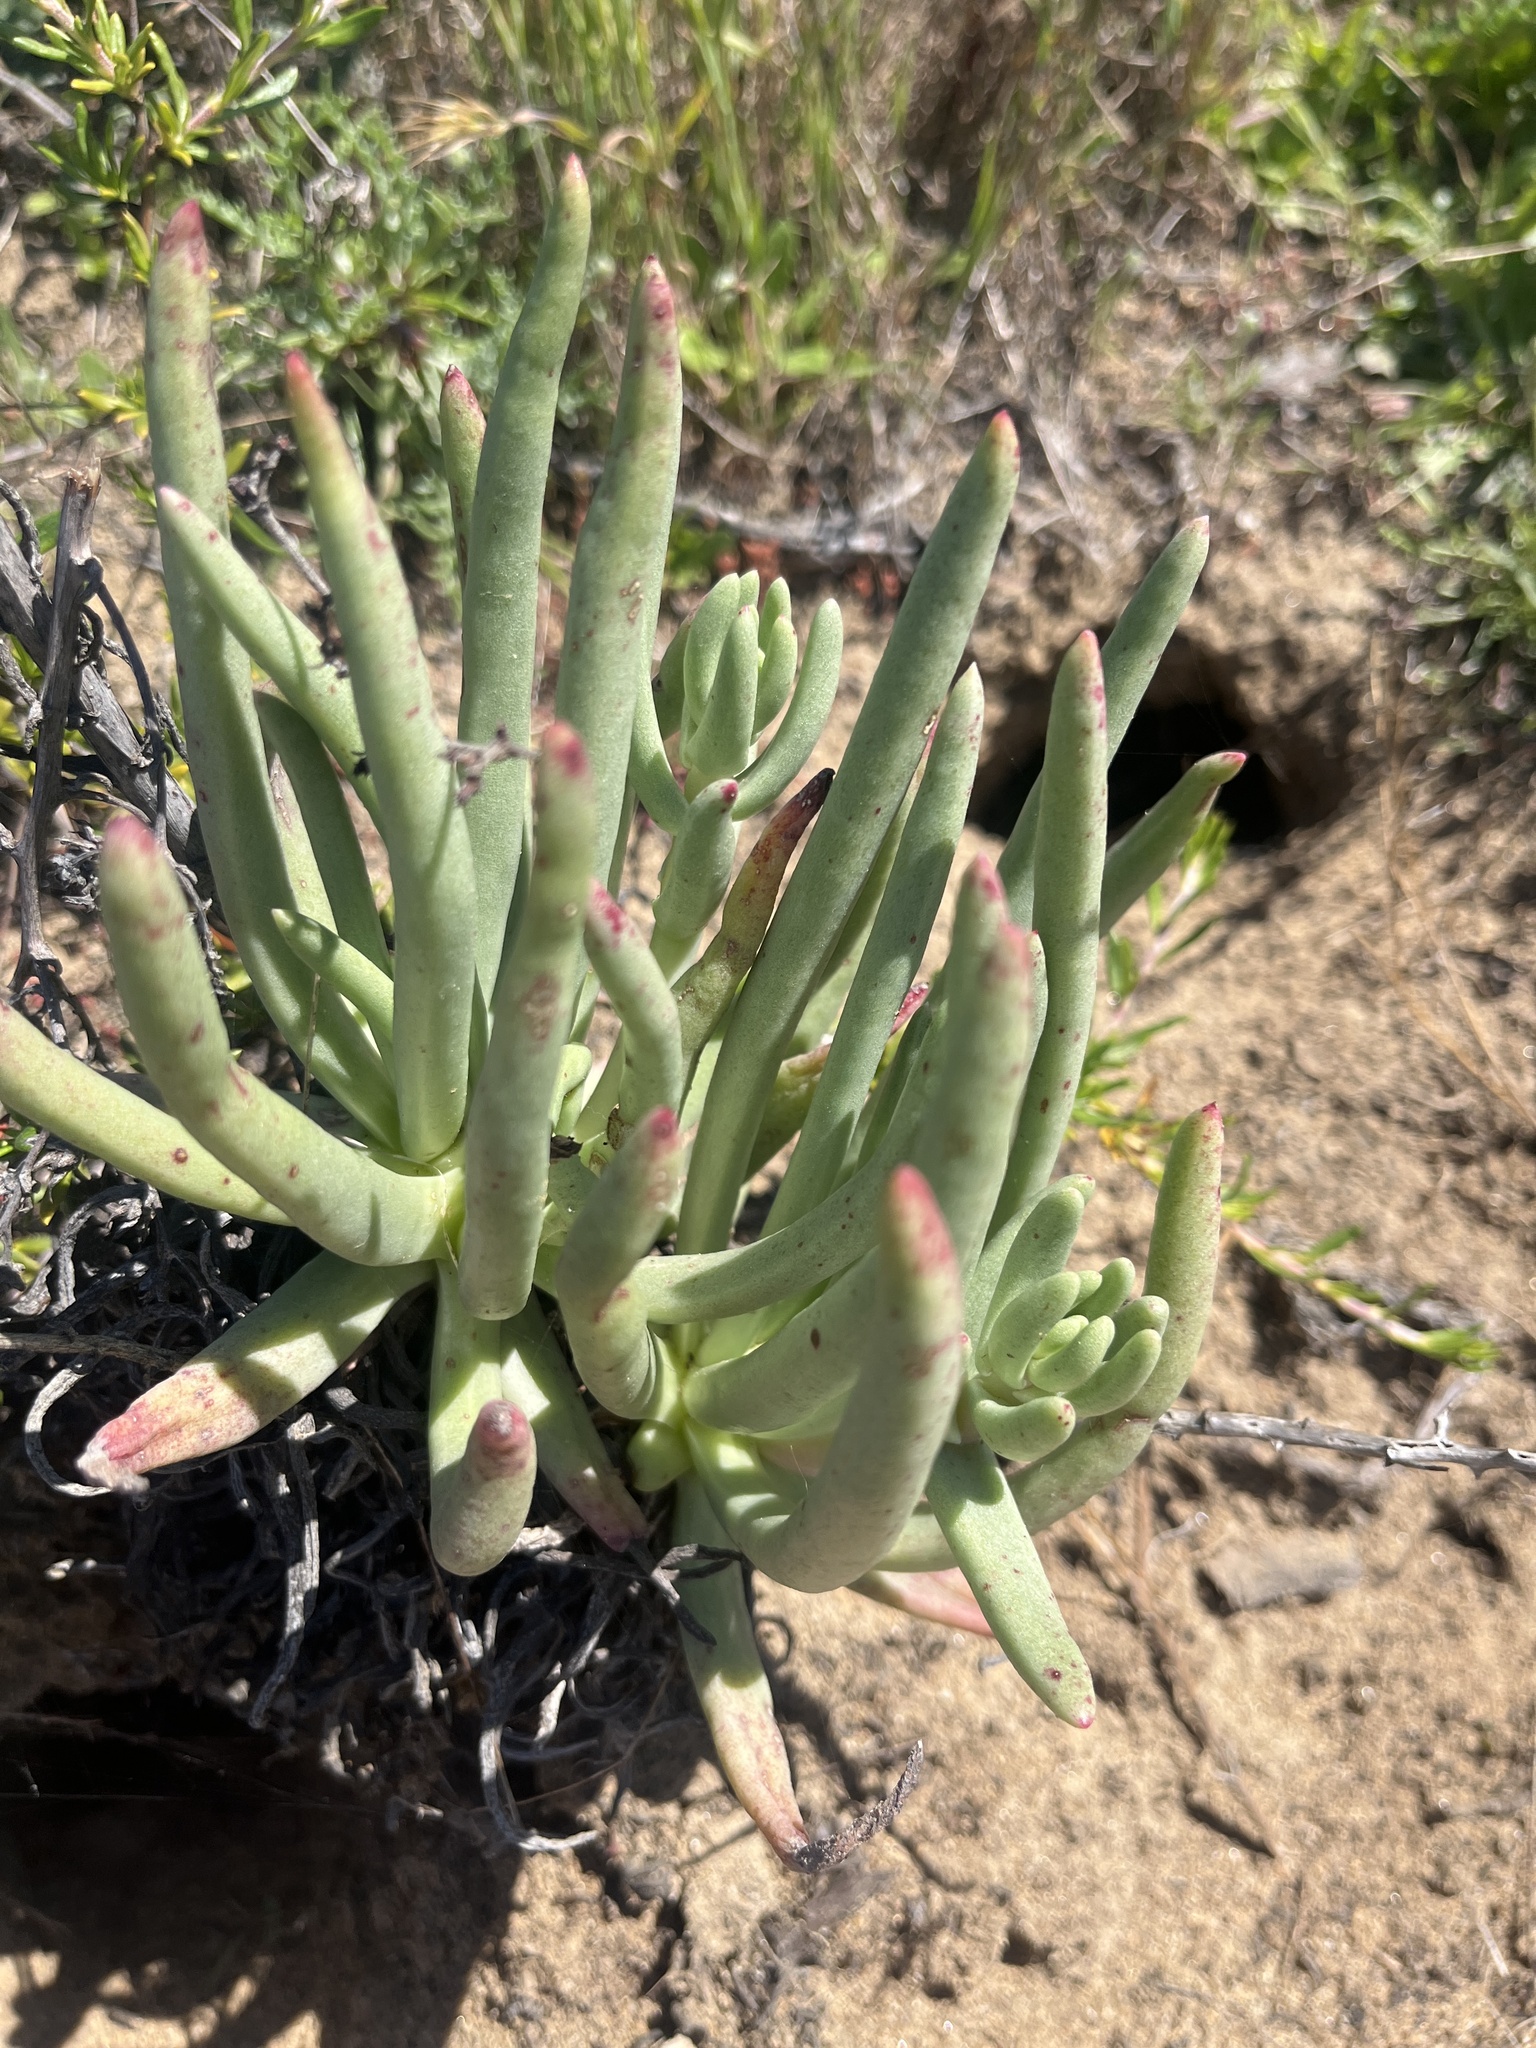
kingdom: Plantae
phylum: Tracheophyta
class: Magnoliopsida
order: Saxifragales
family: Crassulaceae
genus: Dudleya
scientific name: Dudleya edulis
